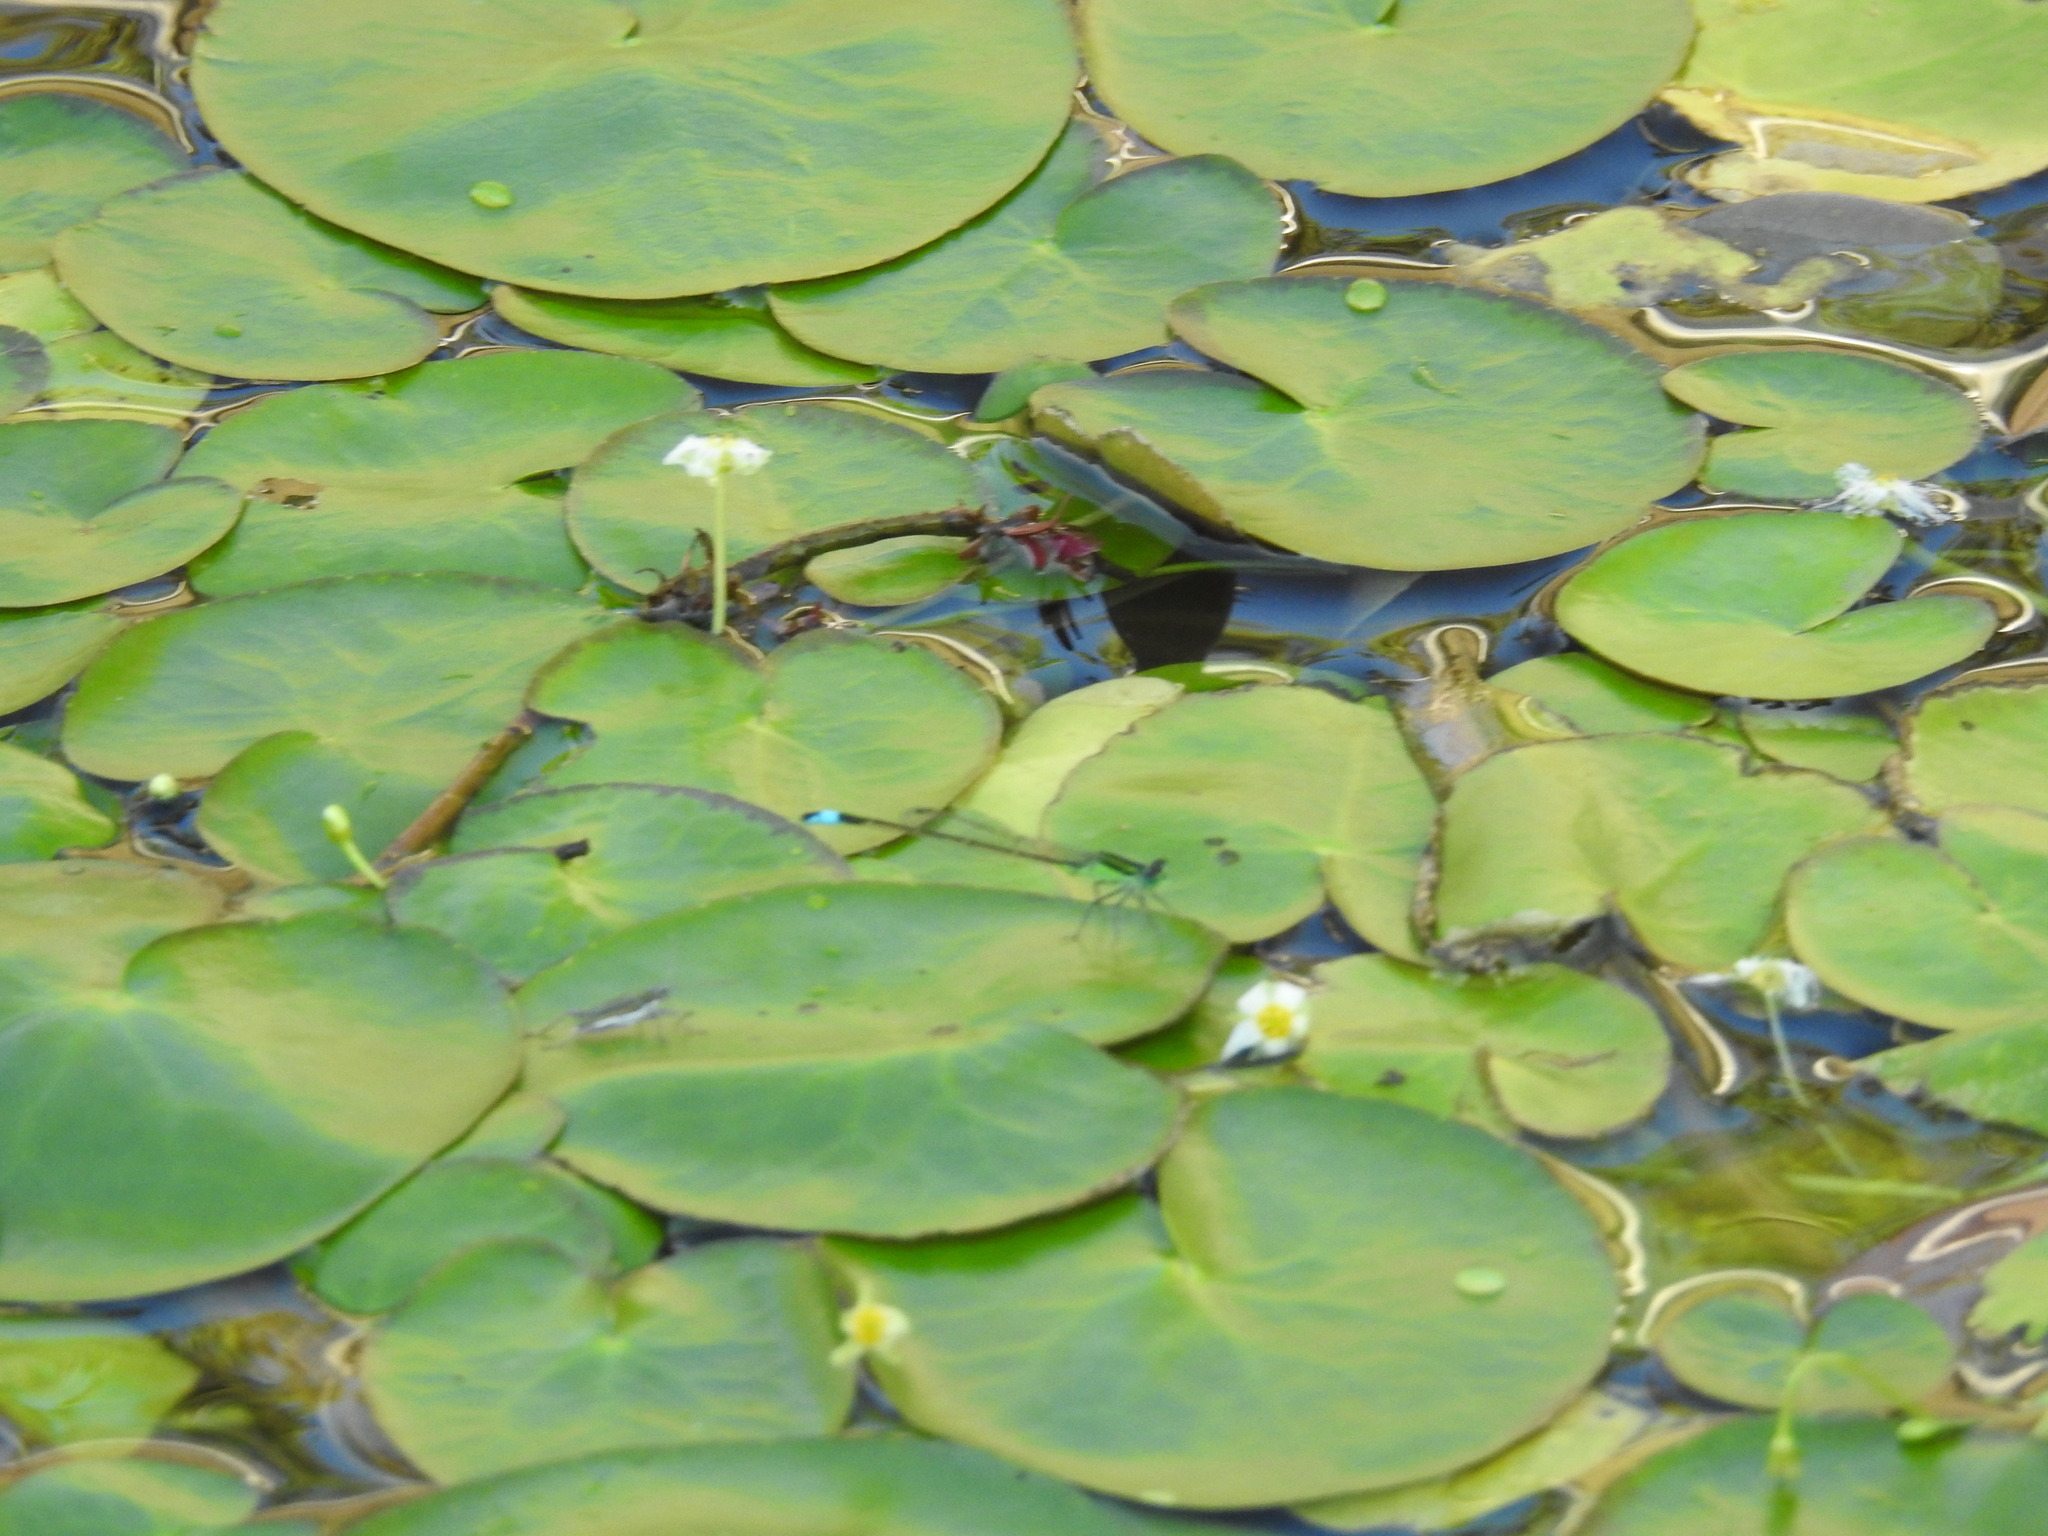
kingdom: Animalia
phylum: Arthropoda
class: Insecta
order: Odonata
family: Coenagrionidae
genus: Ischnura
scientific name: Ischnura ramburii
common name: Rambur's forktail
